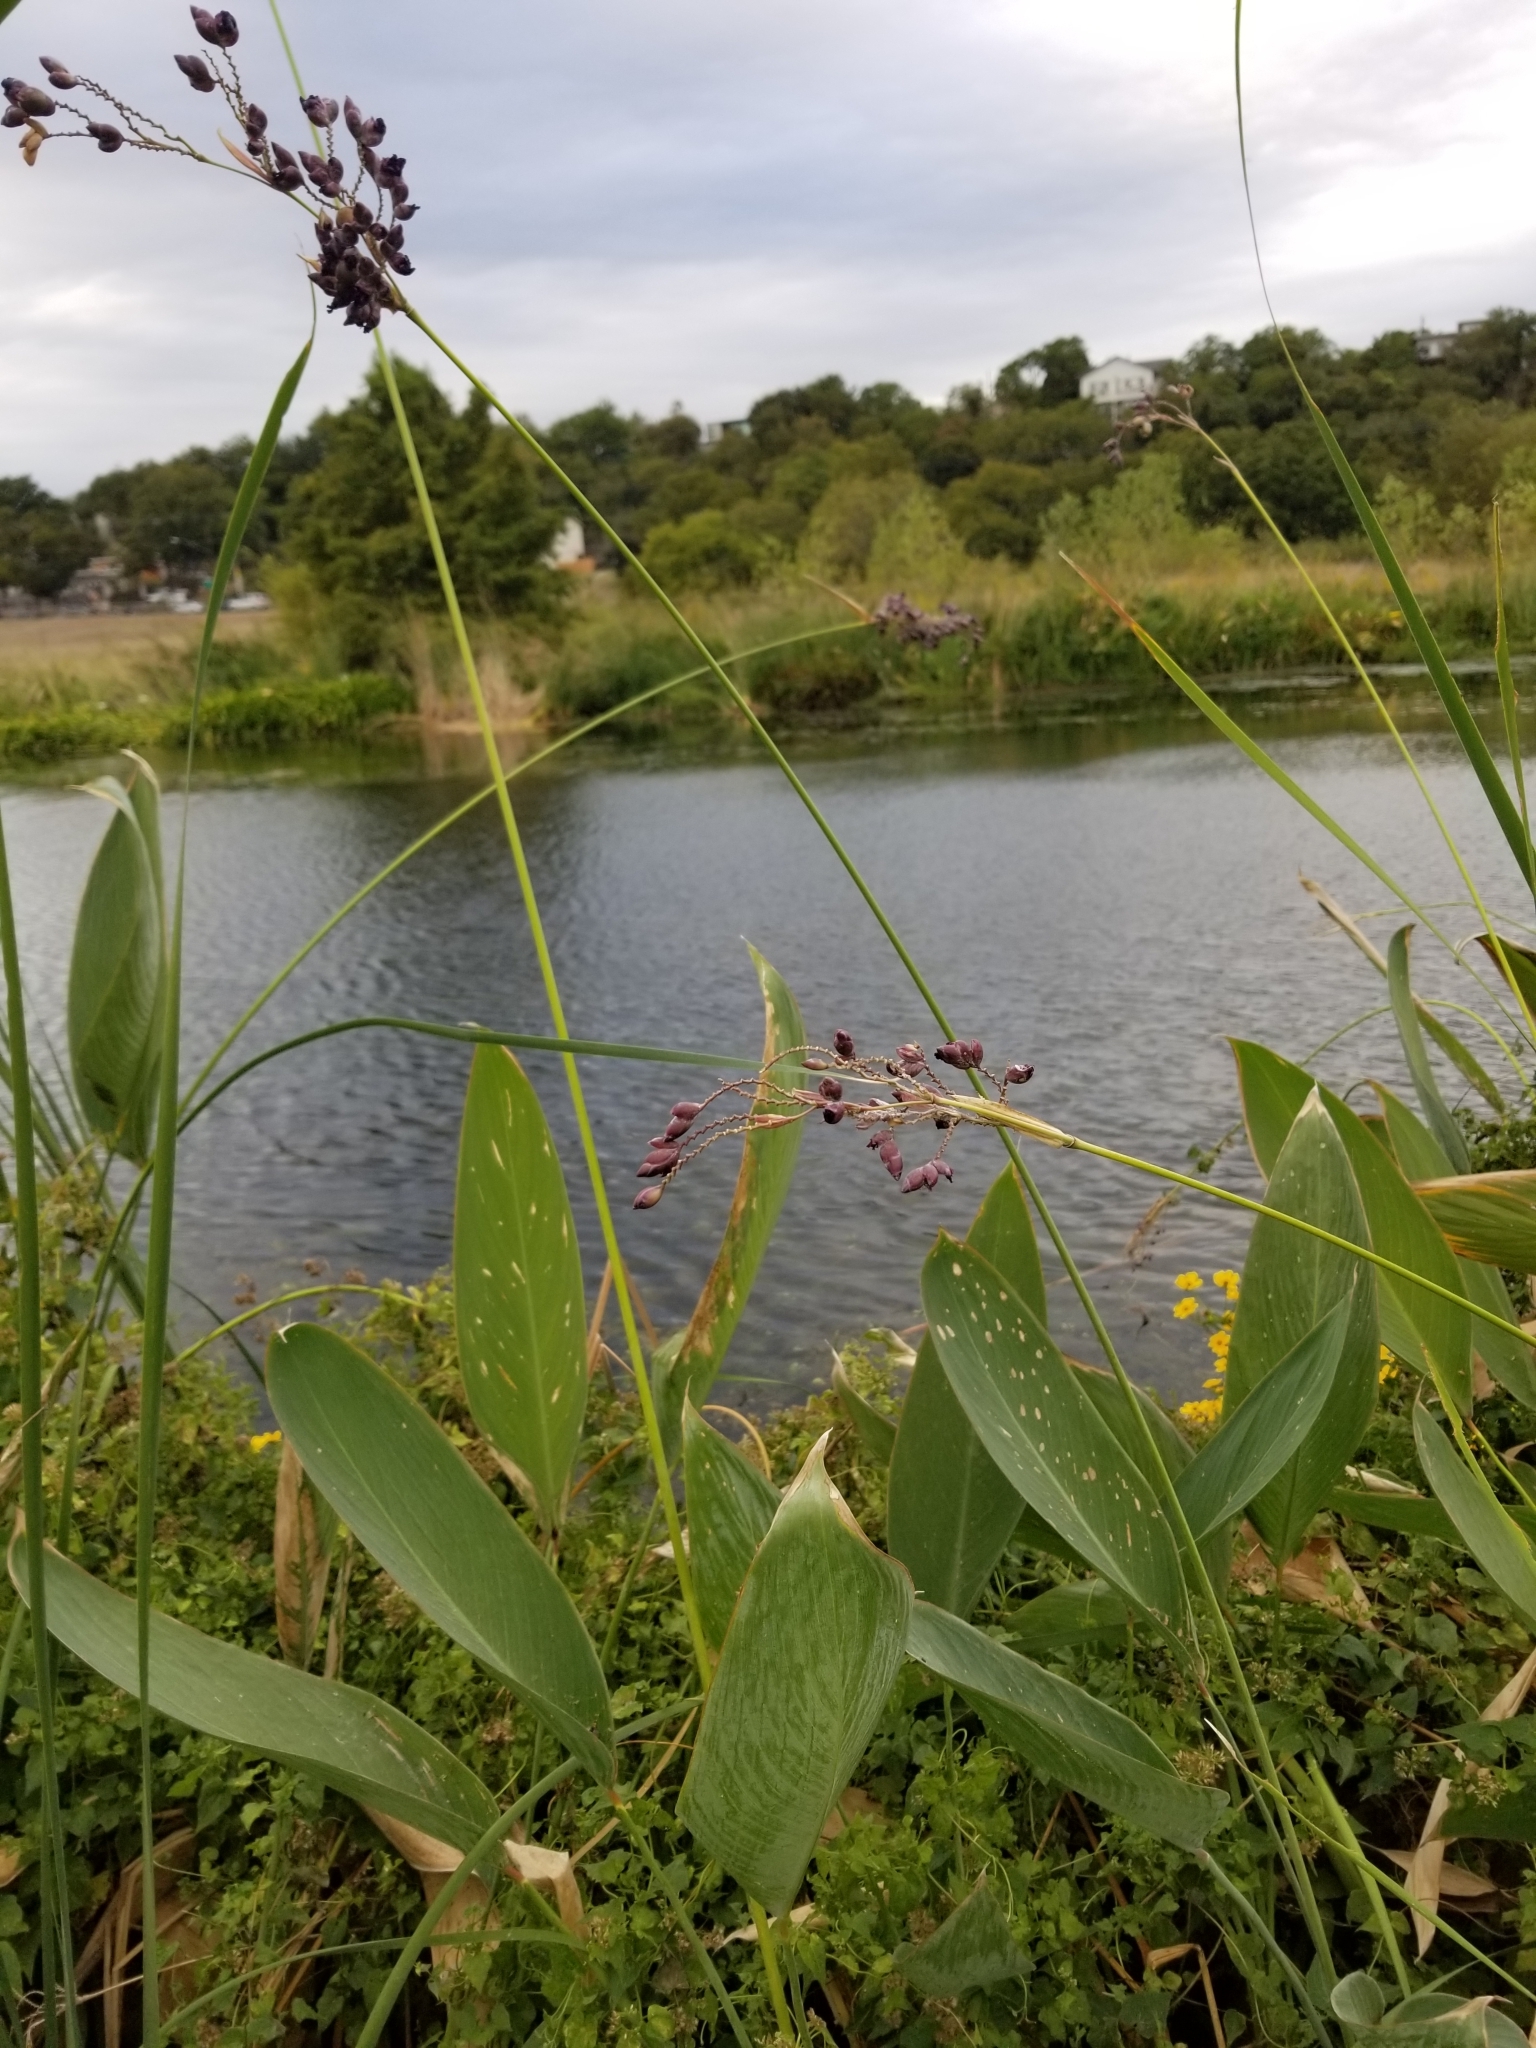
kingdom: Plantae
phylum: Tracheophyta
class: Liliopsida
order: Zingiberales
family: Marantaceae
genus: Thalia
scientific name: Thalia dealbata
